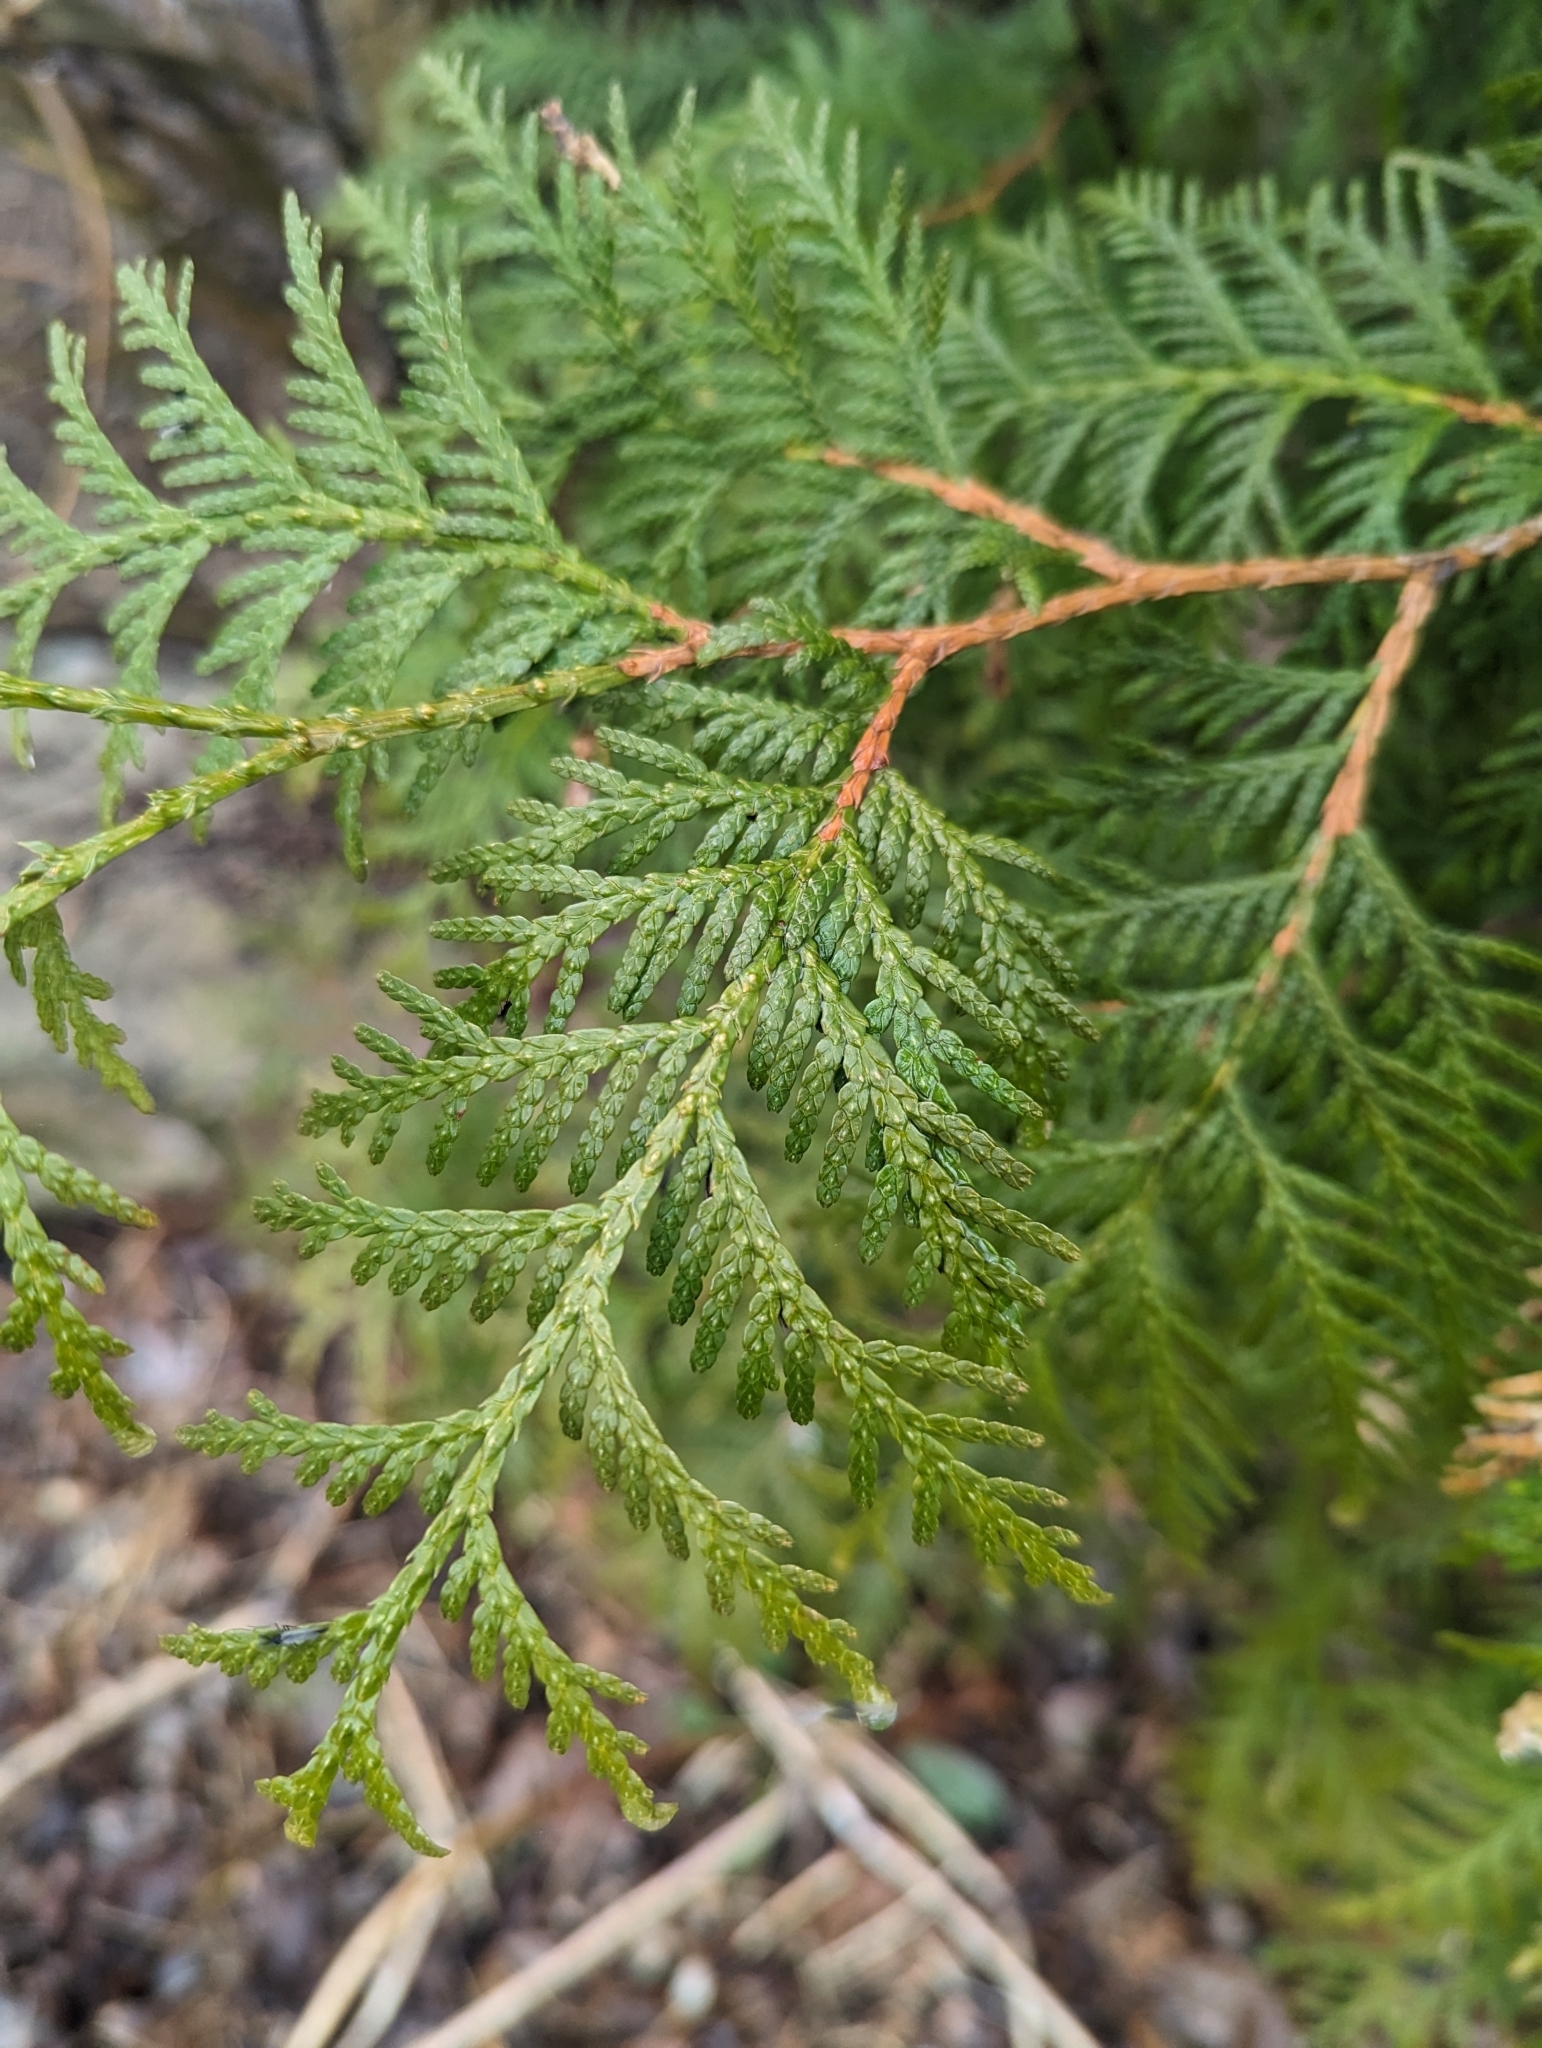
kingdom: Plantae
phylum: Tracheophyta
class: Pinopsida
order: Pinales
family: Cupressaceae
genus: Thuja
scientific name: Thuja occidentalis
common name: Northern white-cedar
